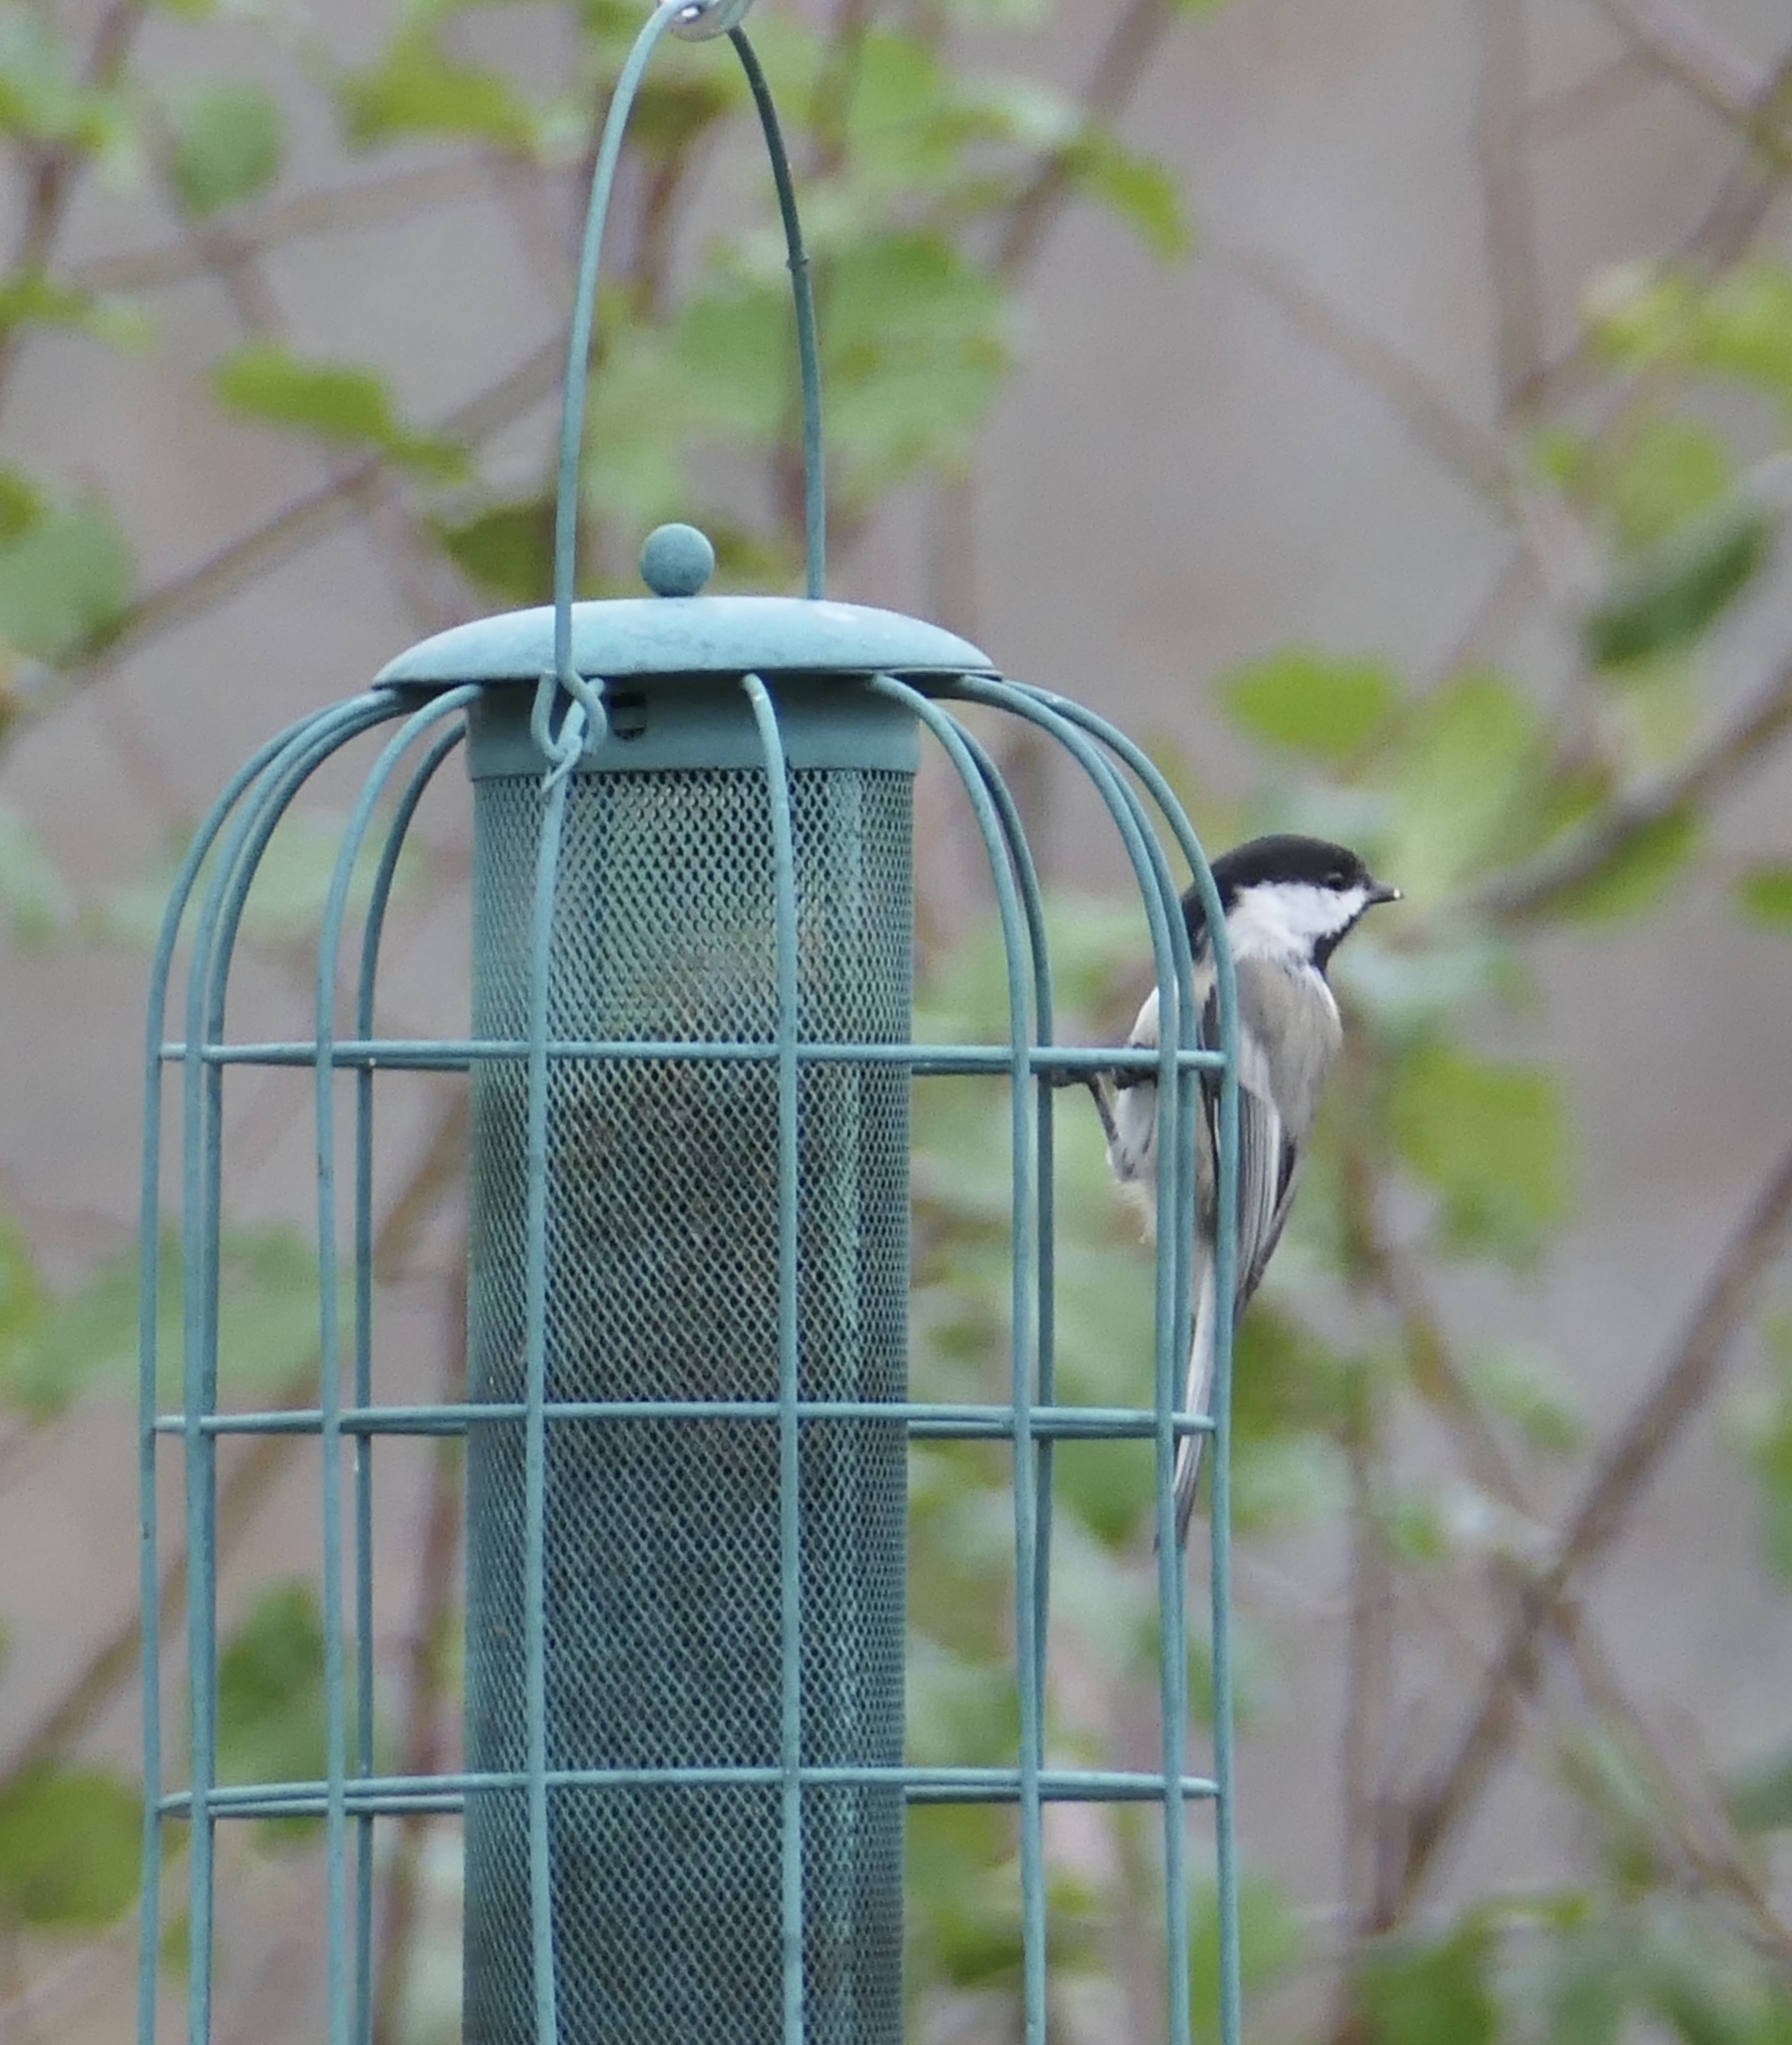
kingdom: Animalia
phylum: Chordata
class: Aves
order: Passeriformes
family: Paridae
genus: Poecile
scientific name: Poecile atricapillus
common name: Black-capped chickadee
